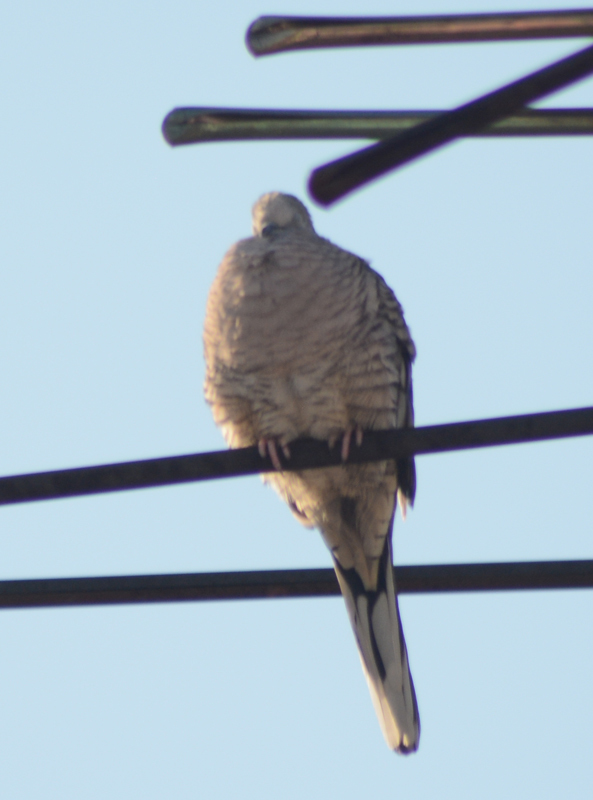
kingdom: Animalia
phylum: Chordata
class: Aves
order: Columbiformes
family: Columbidae
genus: Columbina
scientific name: Columbina inca
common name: Inca dove
